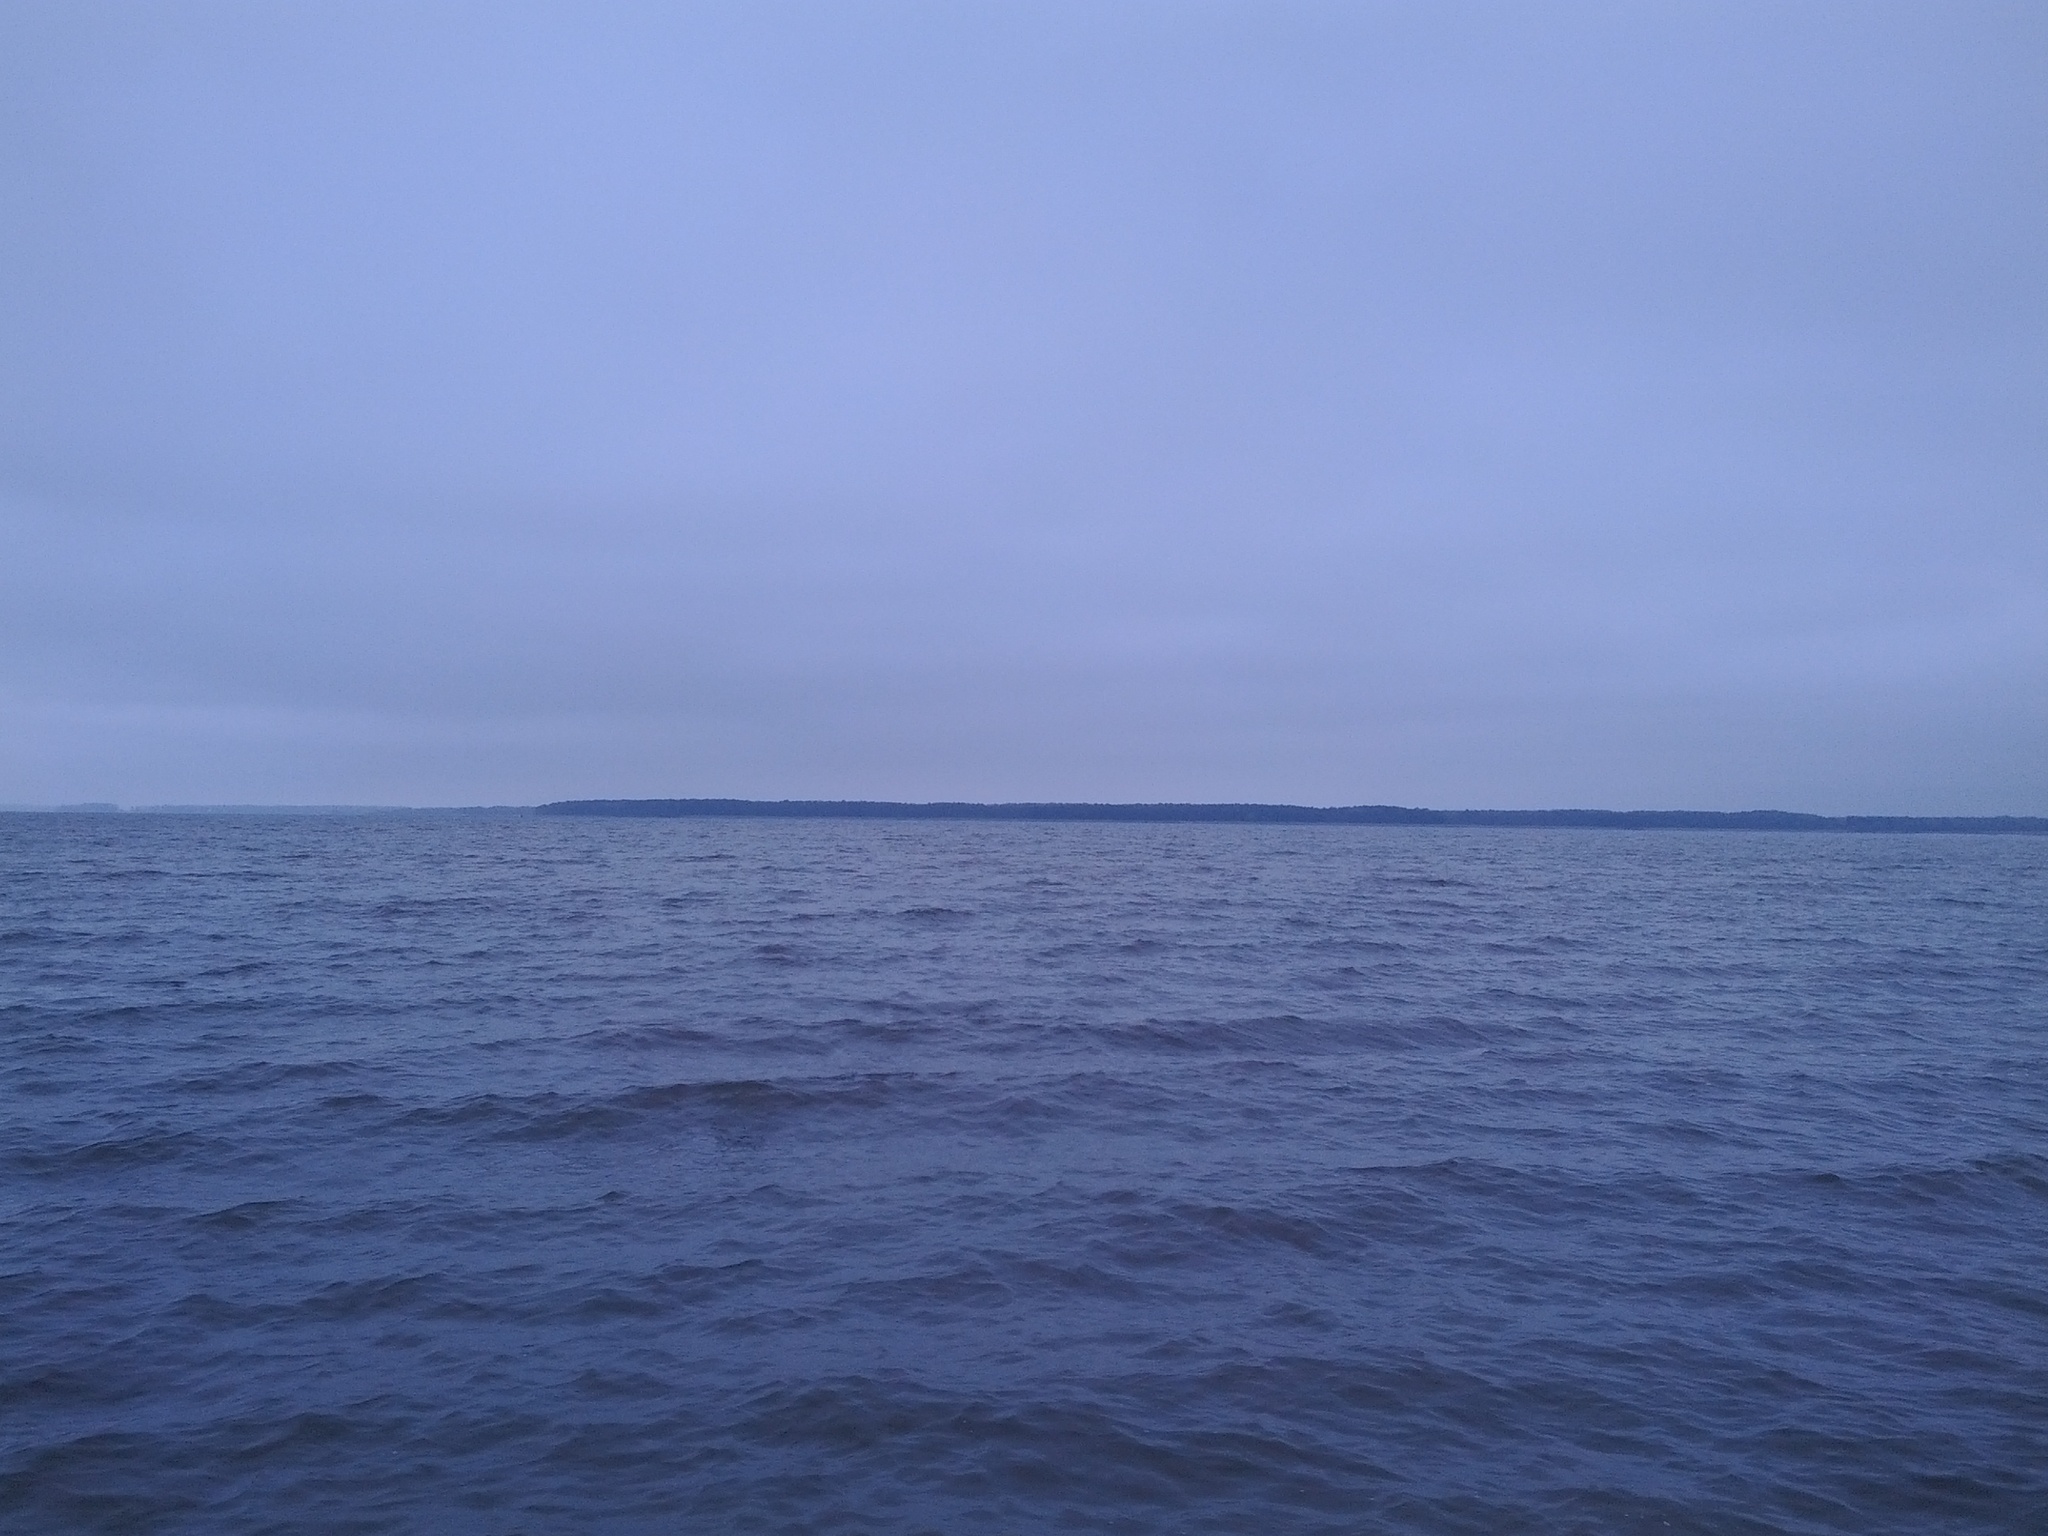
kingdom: Animalia
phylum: Chordata
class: Aves
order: Anseriformes
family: Anatidae
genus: Bucephala
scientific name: Bucephala albeola
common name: Bufflehead
